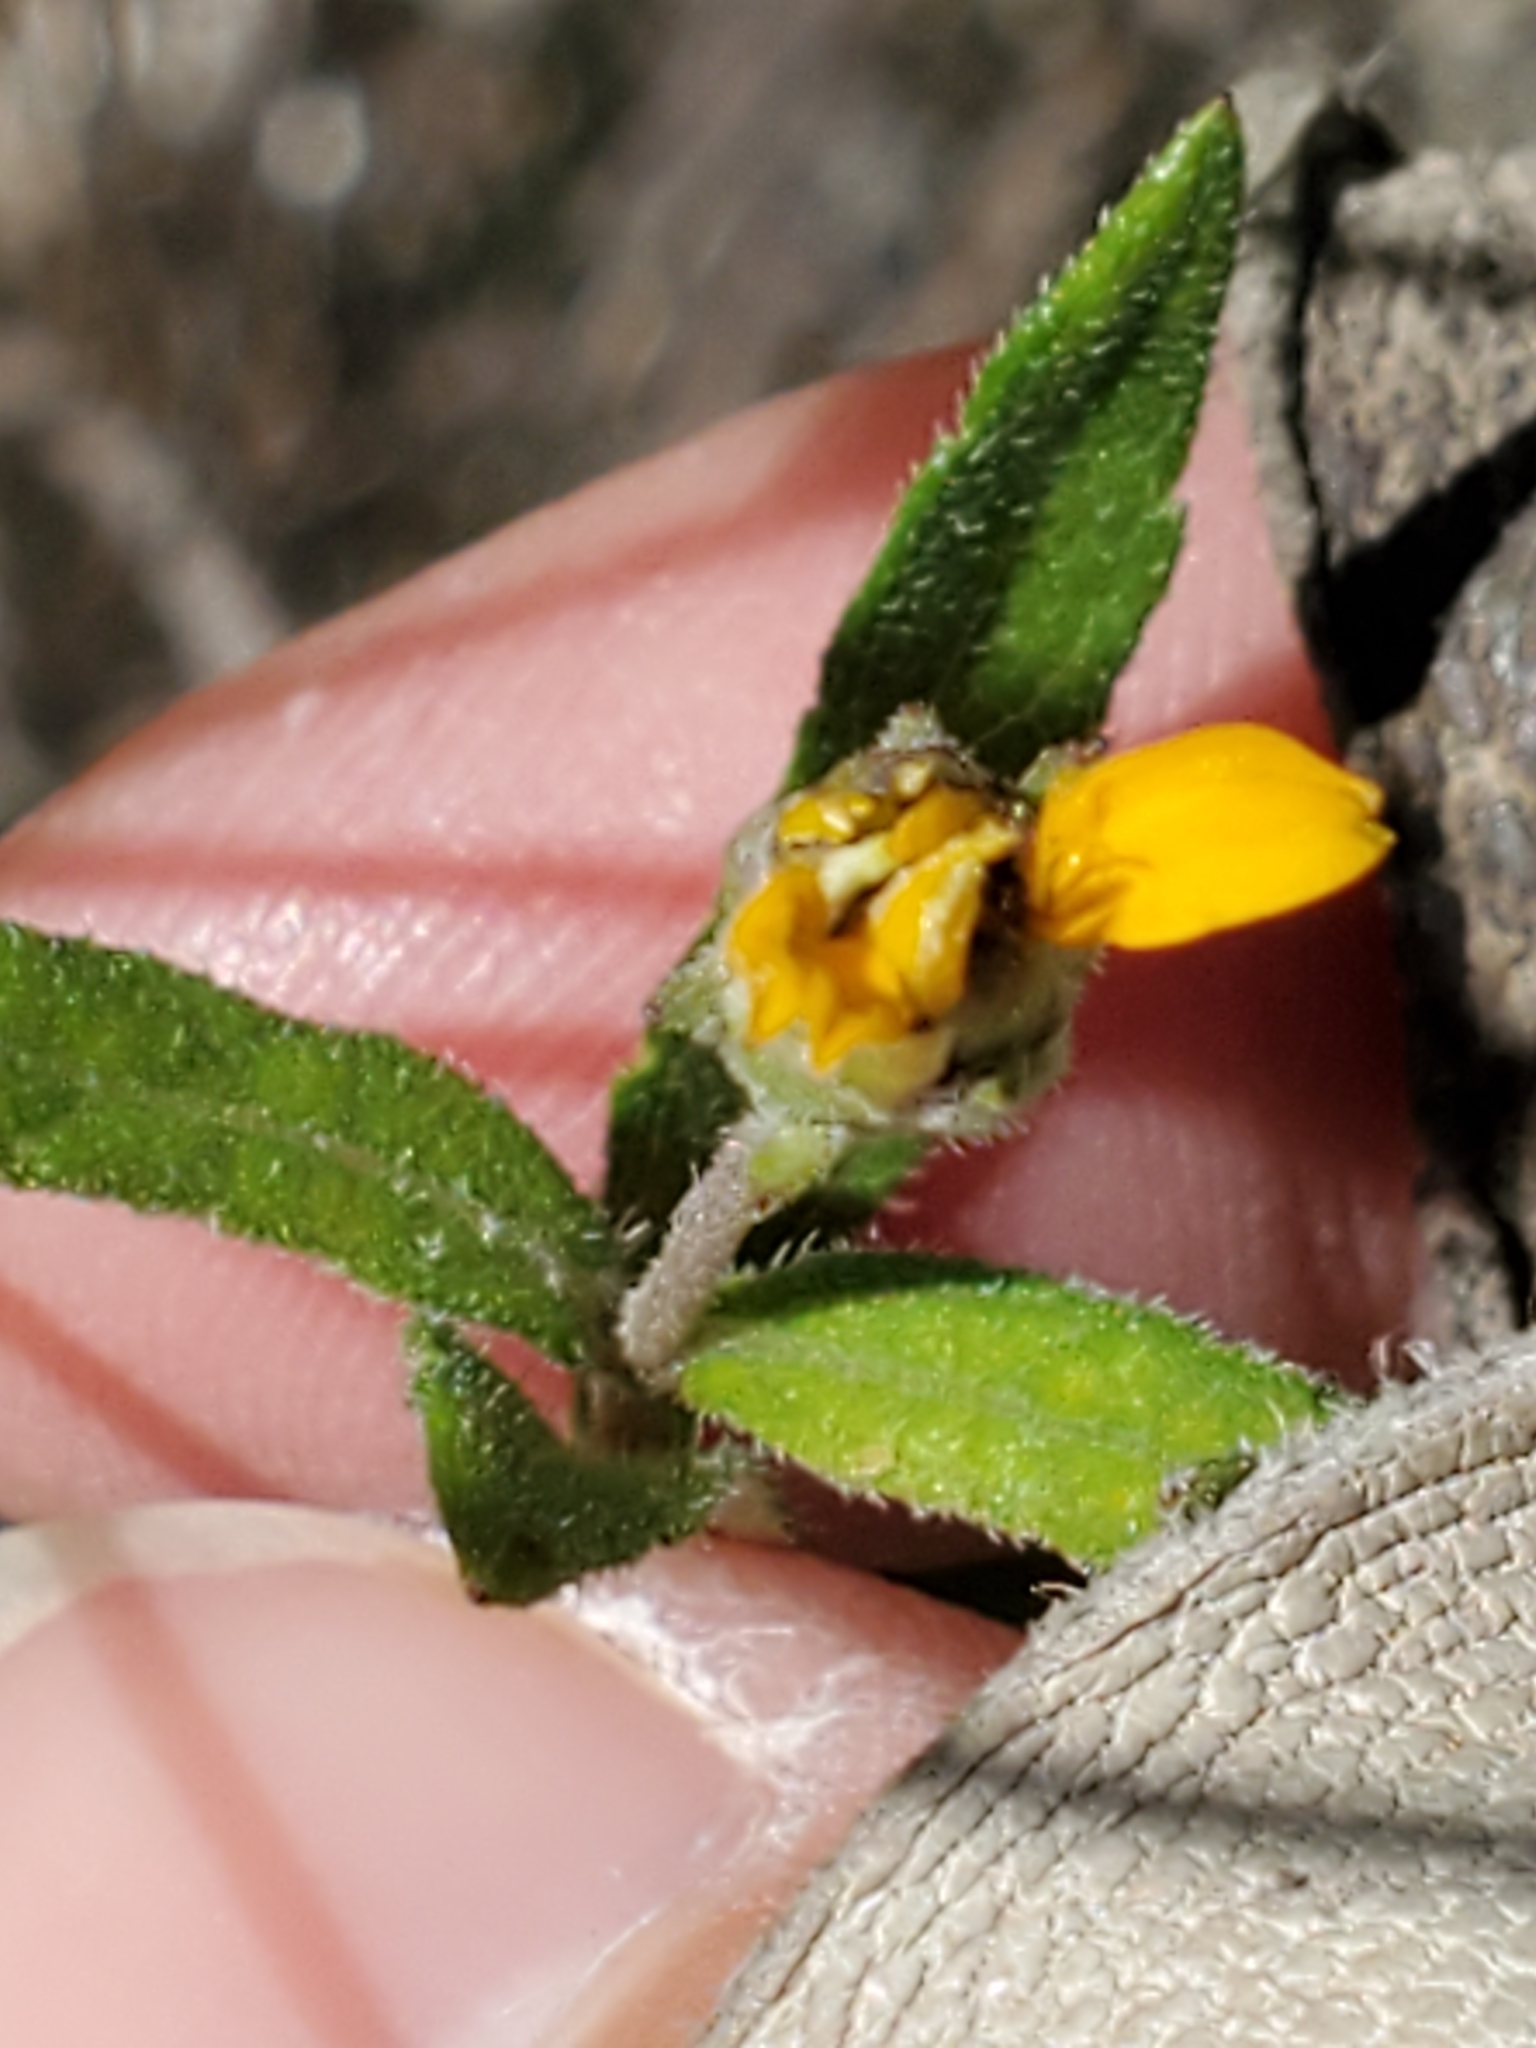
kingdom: Plantae
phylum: Tracheophyta
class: Magnoliopsida
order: Asterales
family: Asteraceae
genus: Wedelia
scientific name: Wedelia acapulcensis
